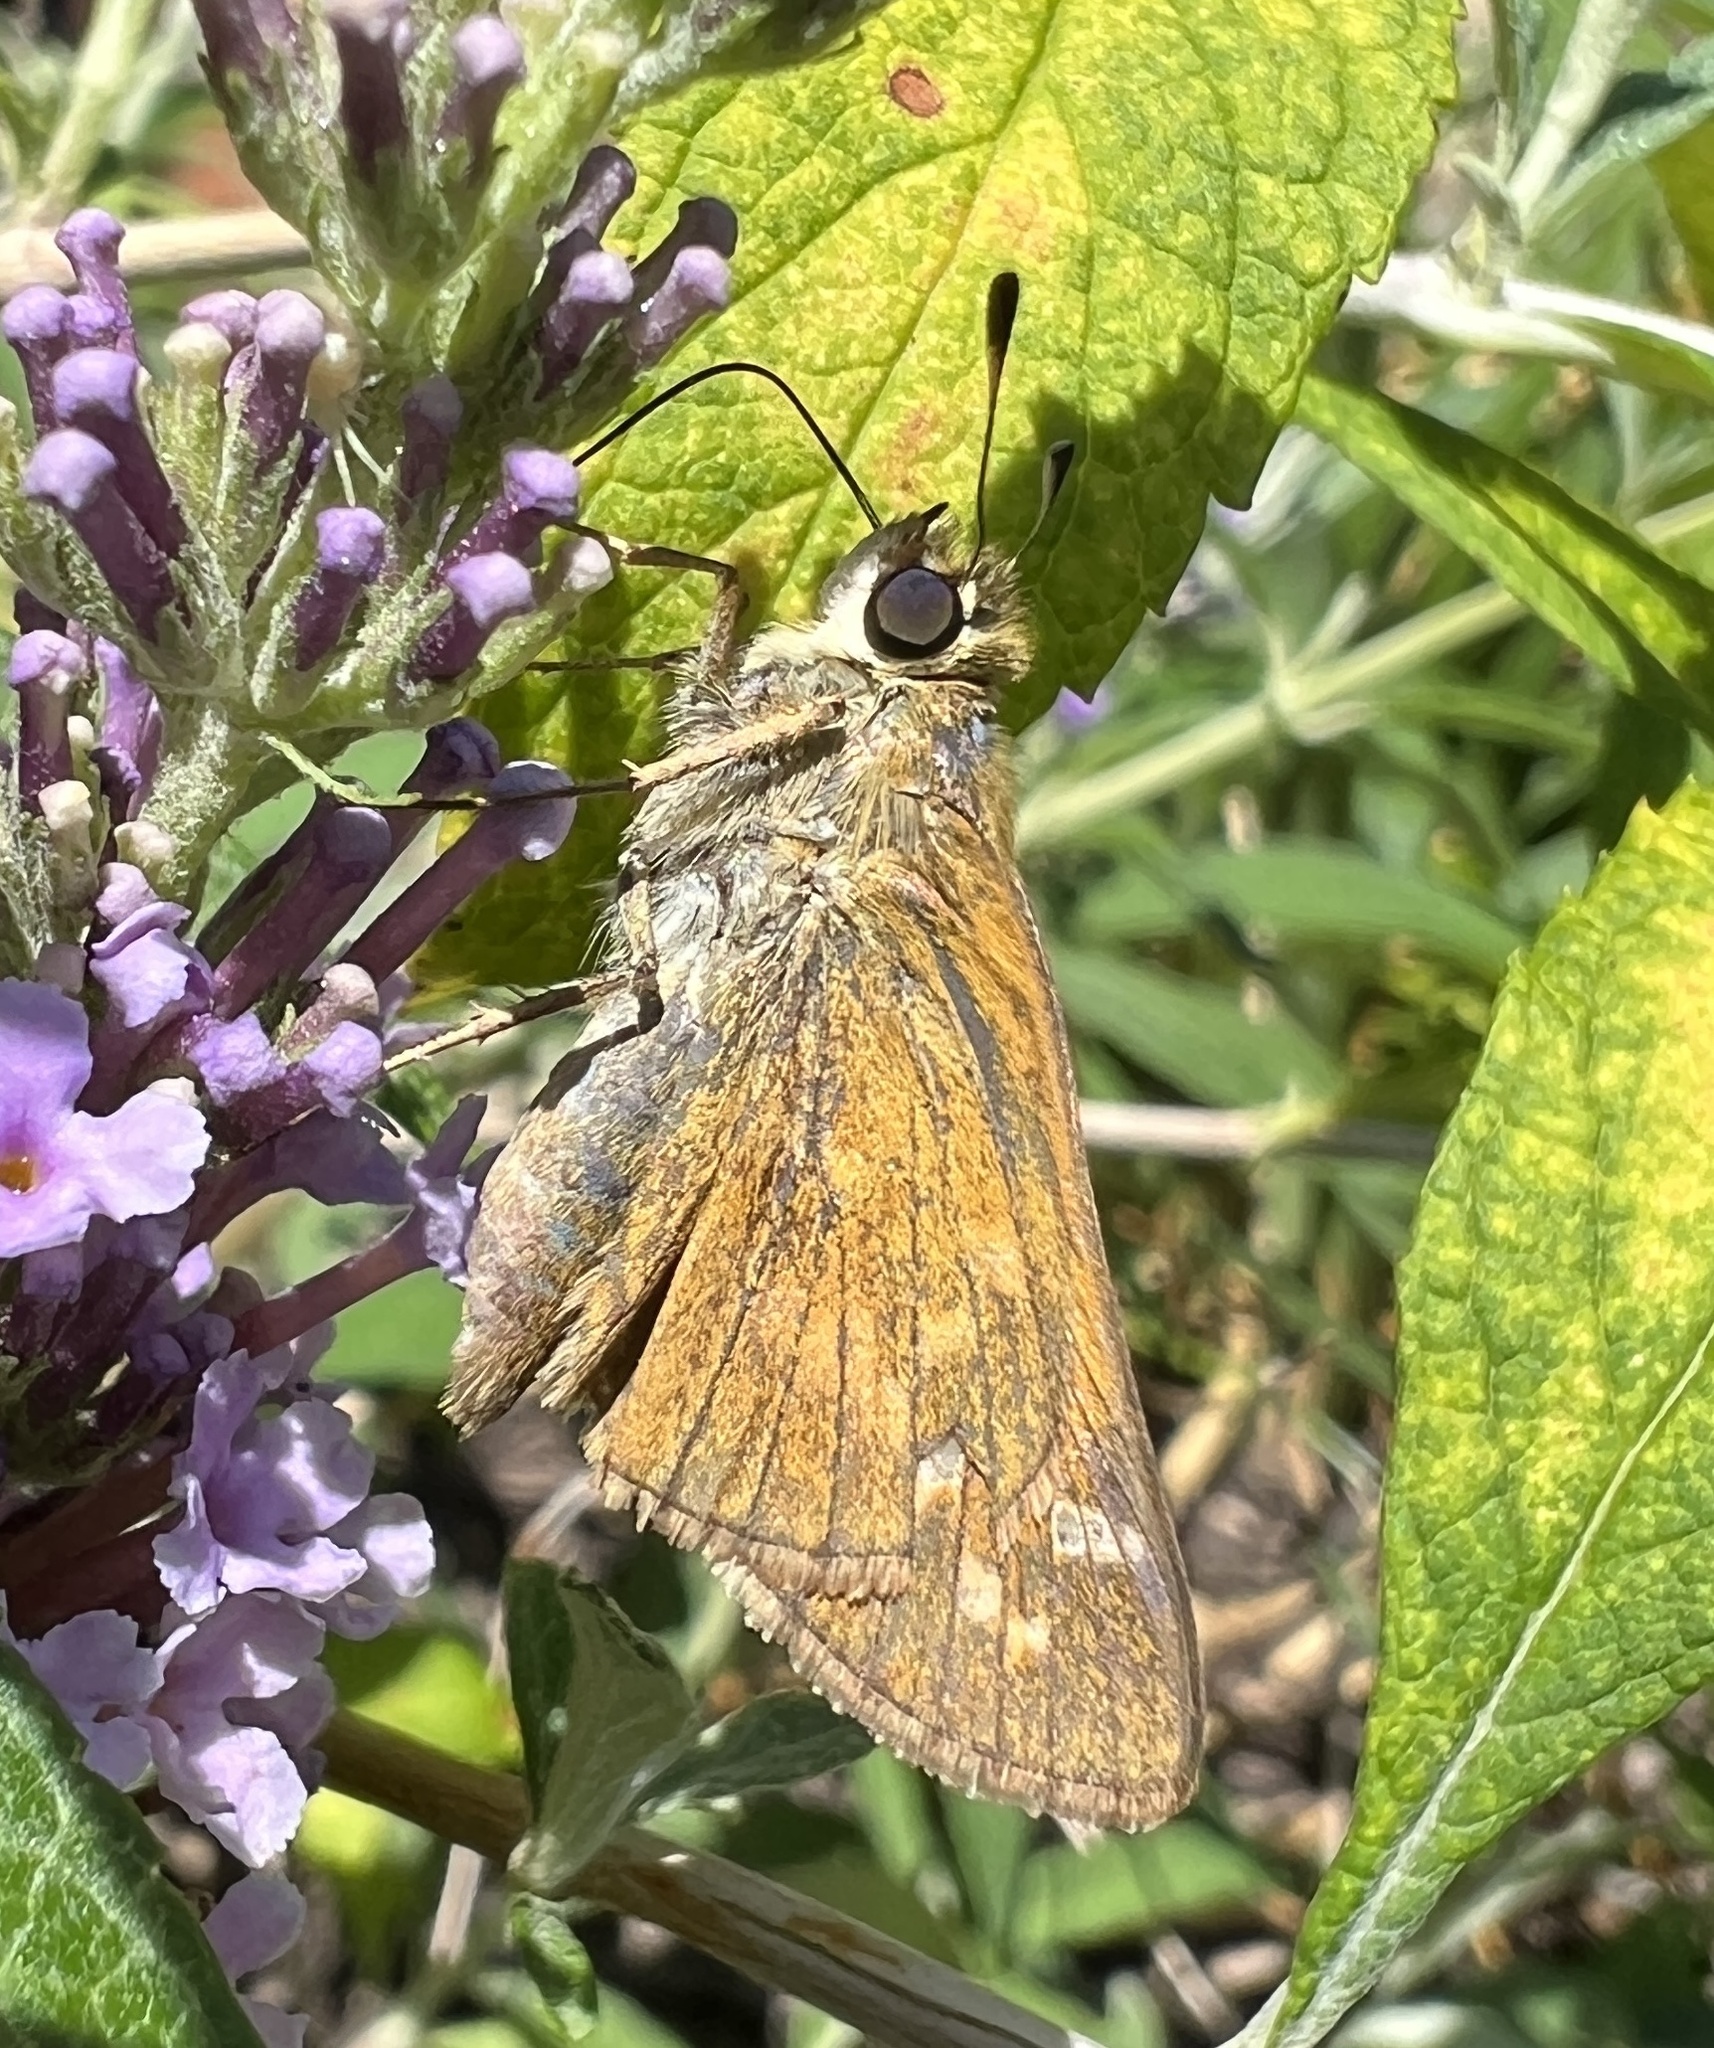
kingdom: Animalia
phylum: Arthropoda
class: Insecta
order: Lepidoptera
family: Hesperiidae
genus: Atalopedes
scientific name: Atalopedes
